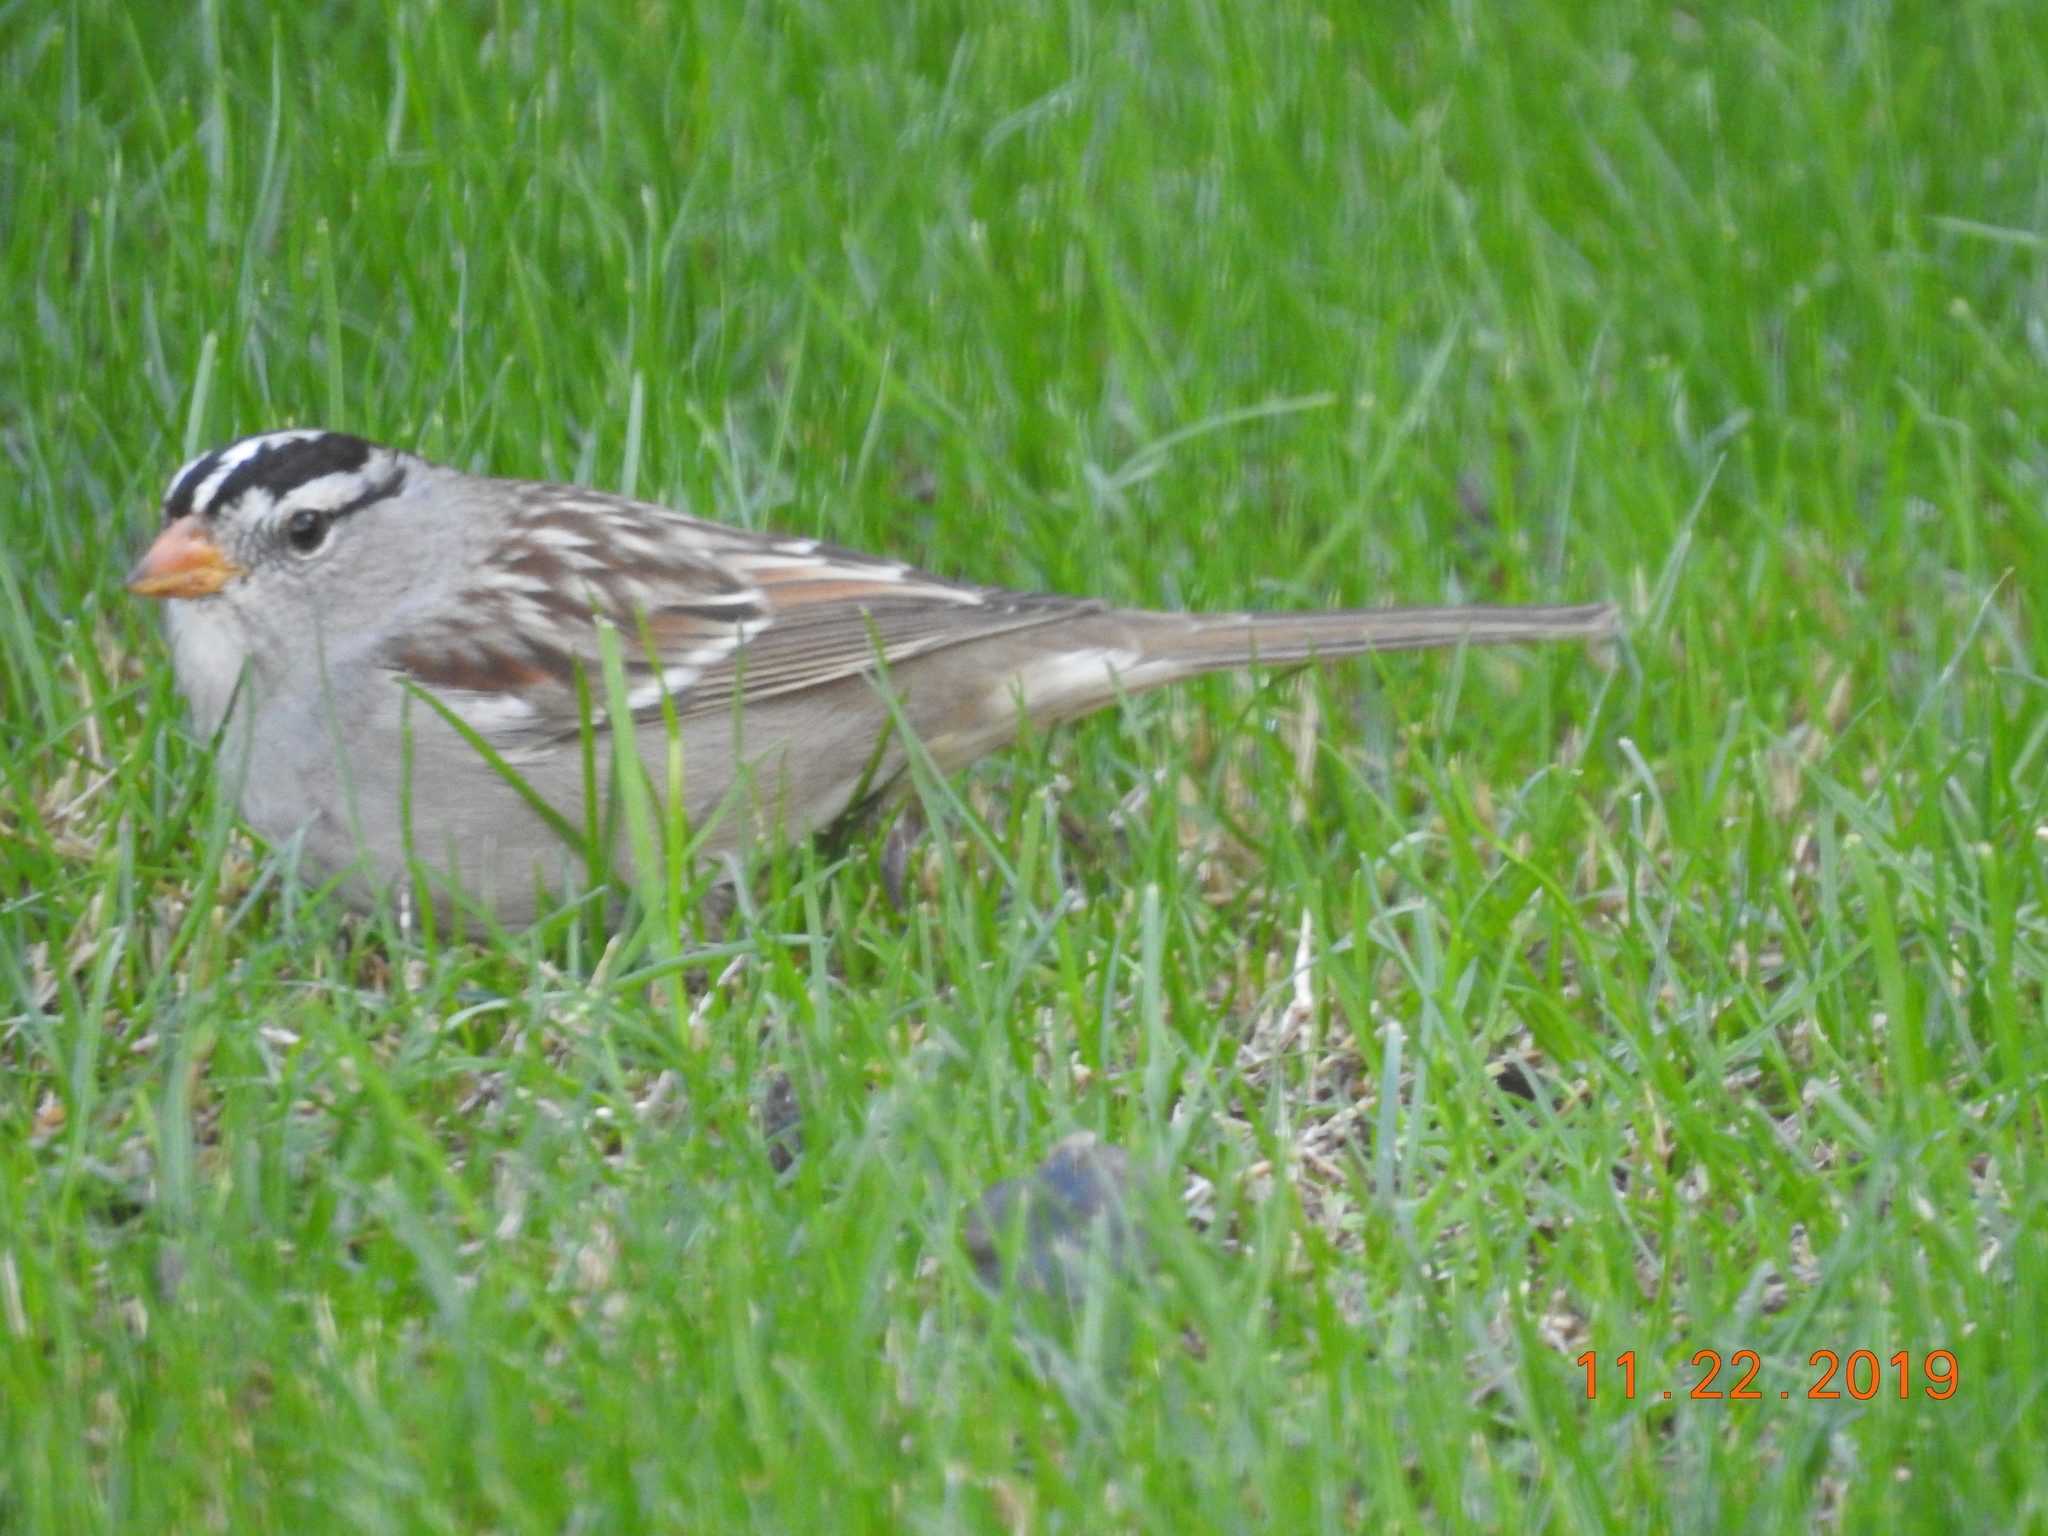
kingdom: Animalia
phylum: Chordata
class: Aves
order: Passeriformes
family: Passerellidae
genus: Zonotrichia
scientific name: Zonotrichia leucophrys
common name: White-crowned sparrow
